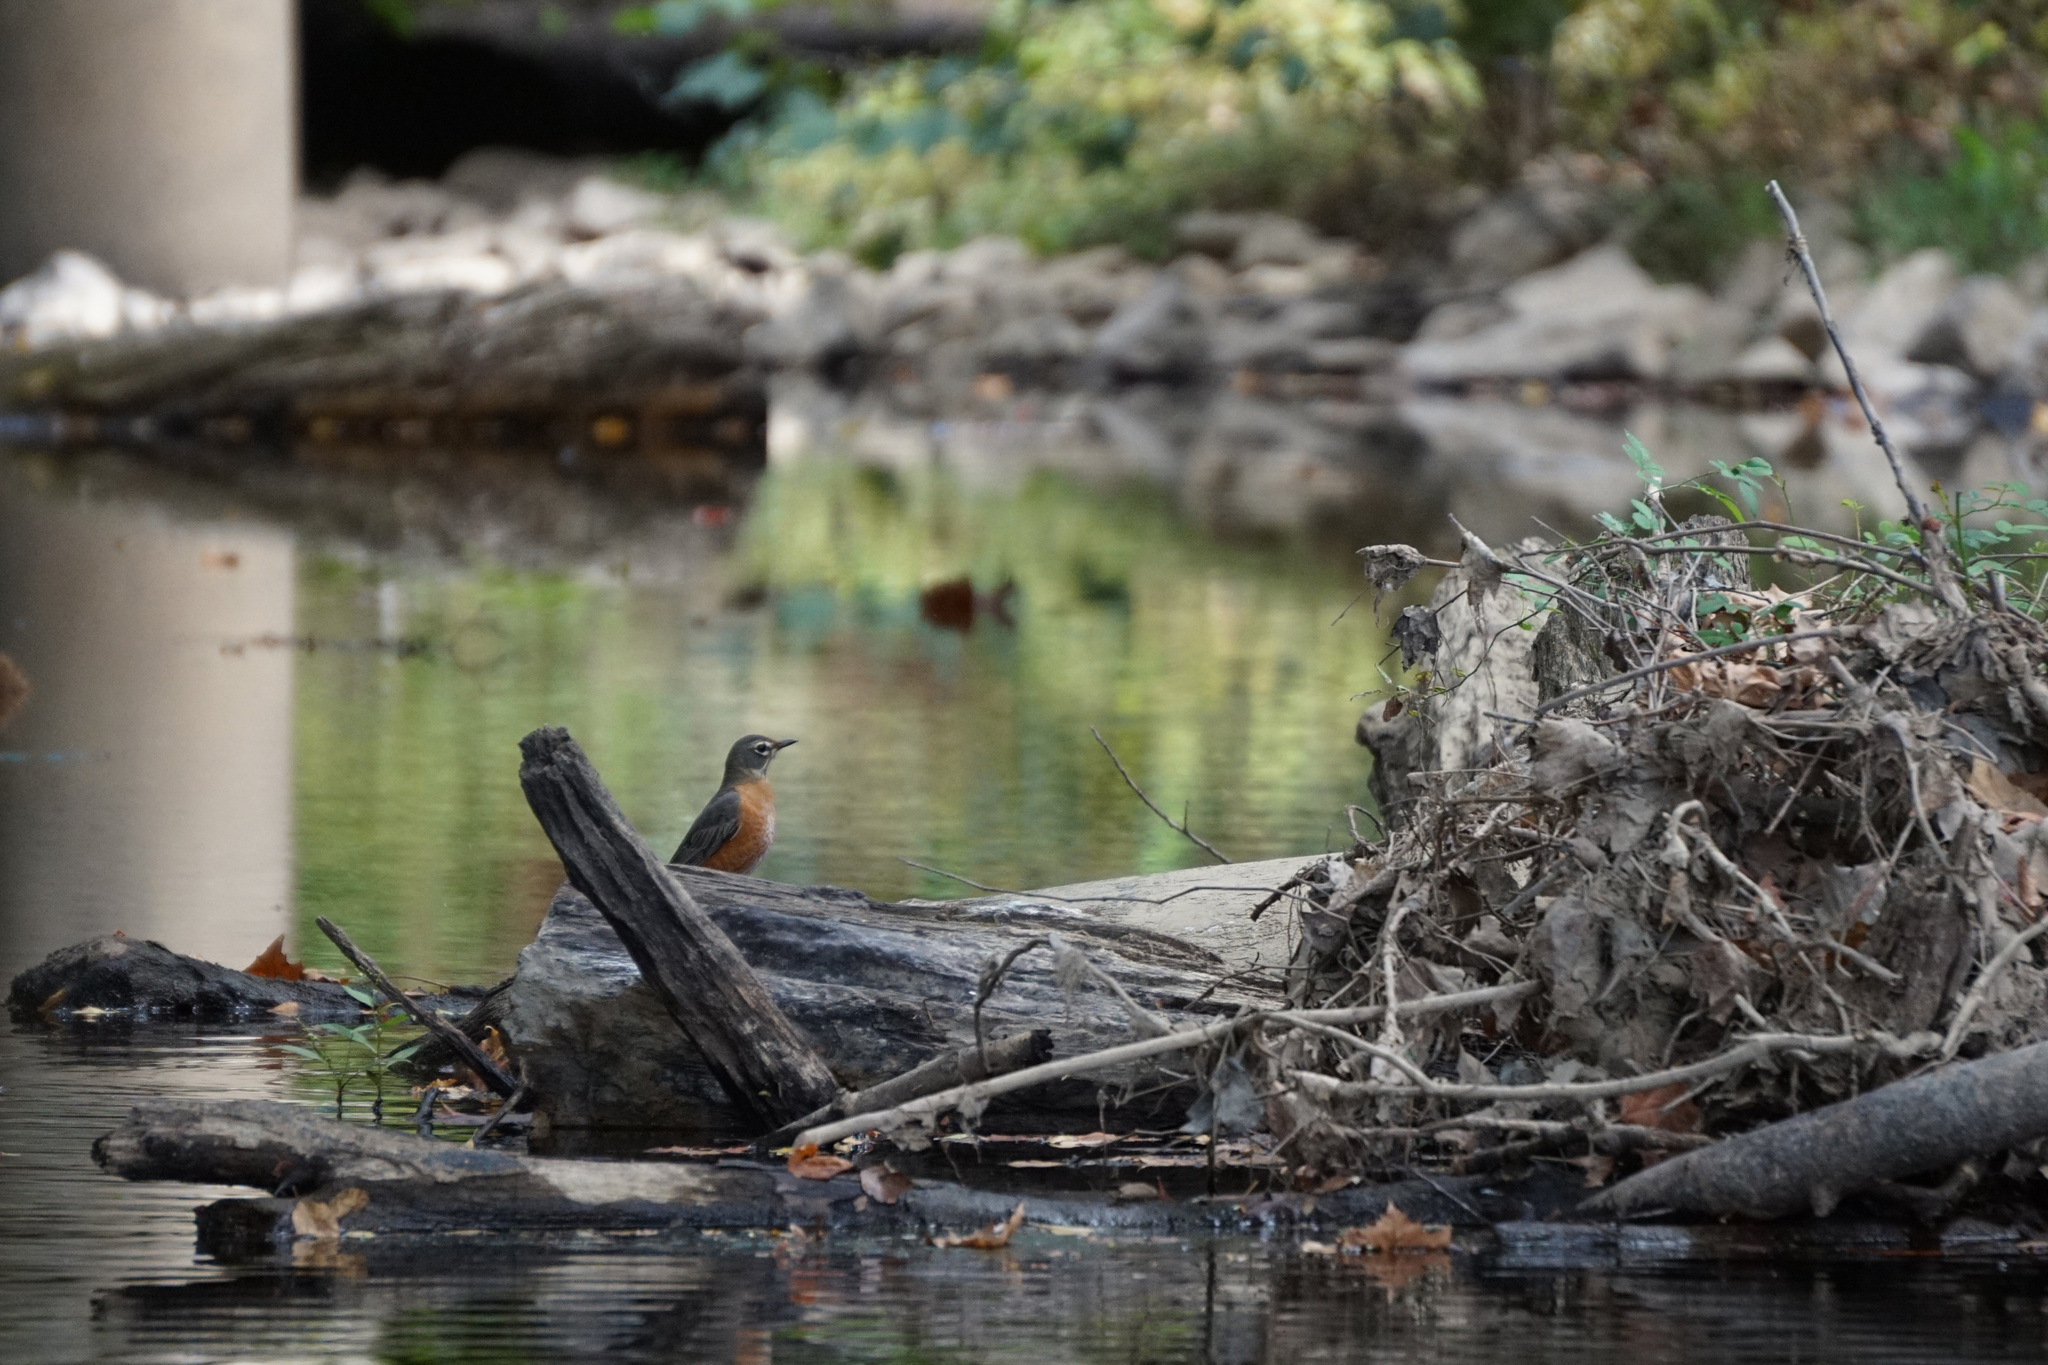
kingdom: Animalia
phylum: Chordata
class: Aves
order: Passeriformes
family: Turdidae
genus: Turdus
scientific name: Turdus migratorius
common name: American robin
